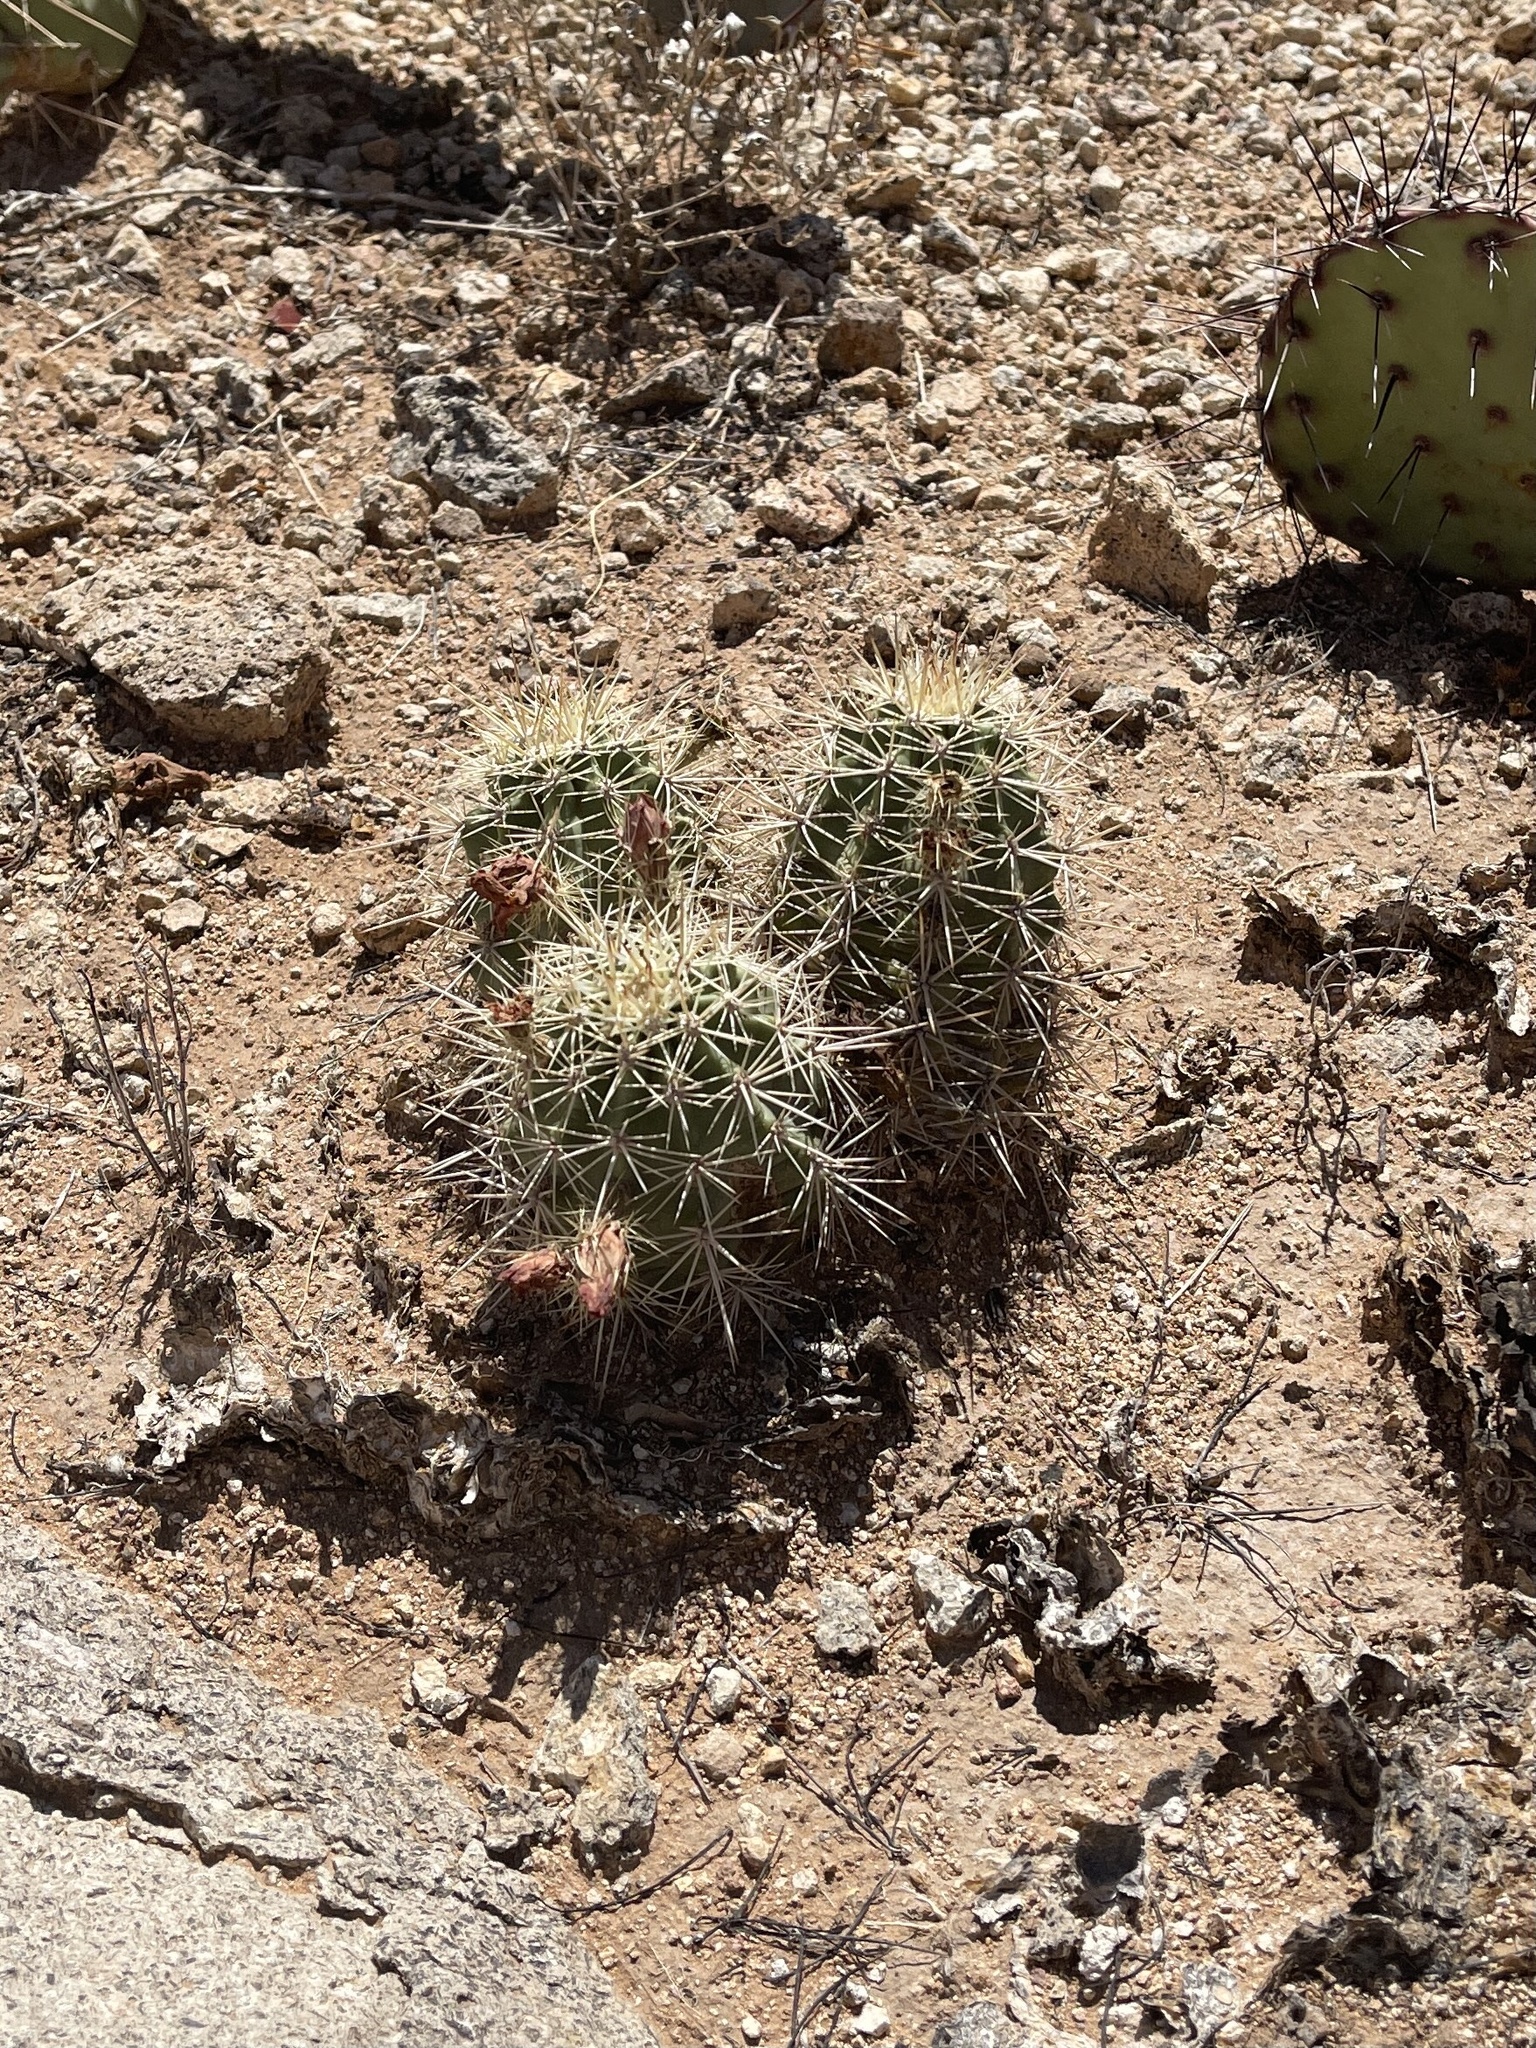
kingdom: Plantae
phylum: Tracheophyta
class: Magnoliopsida
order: Caryophyllales
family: Cactaceae
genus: Echinocereus
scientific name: Echinocereus coccineus
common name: Scarlet hedgehog cactus
